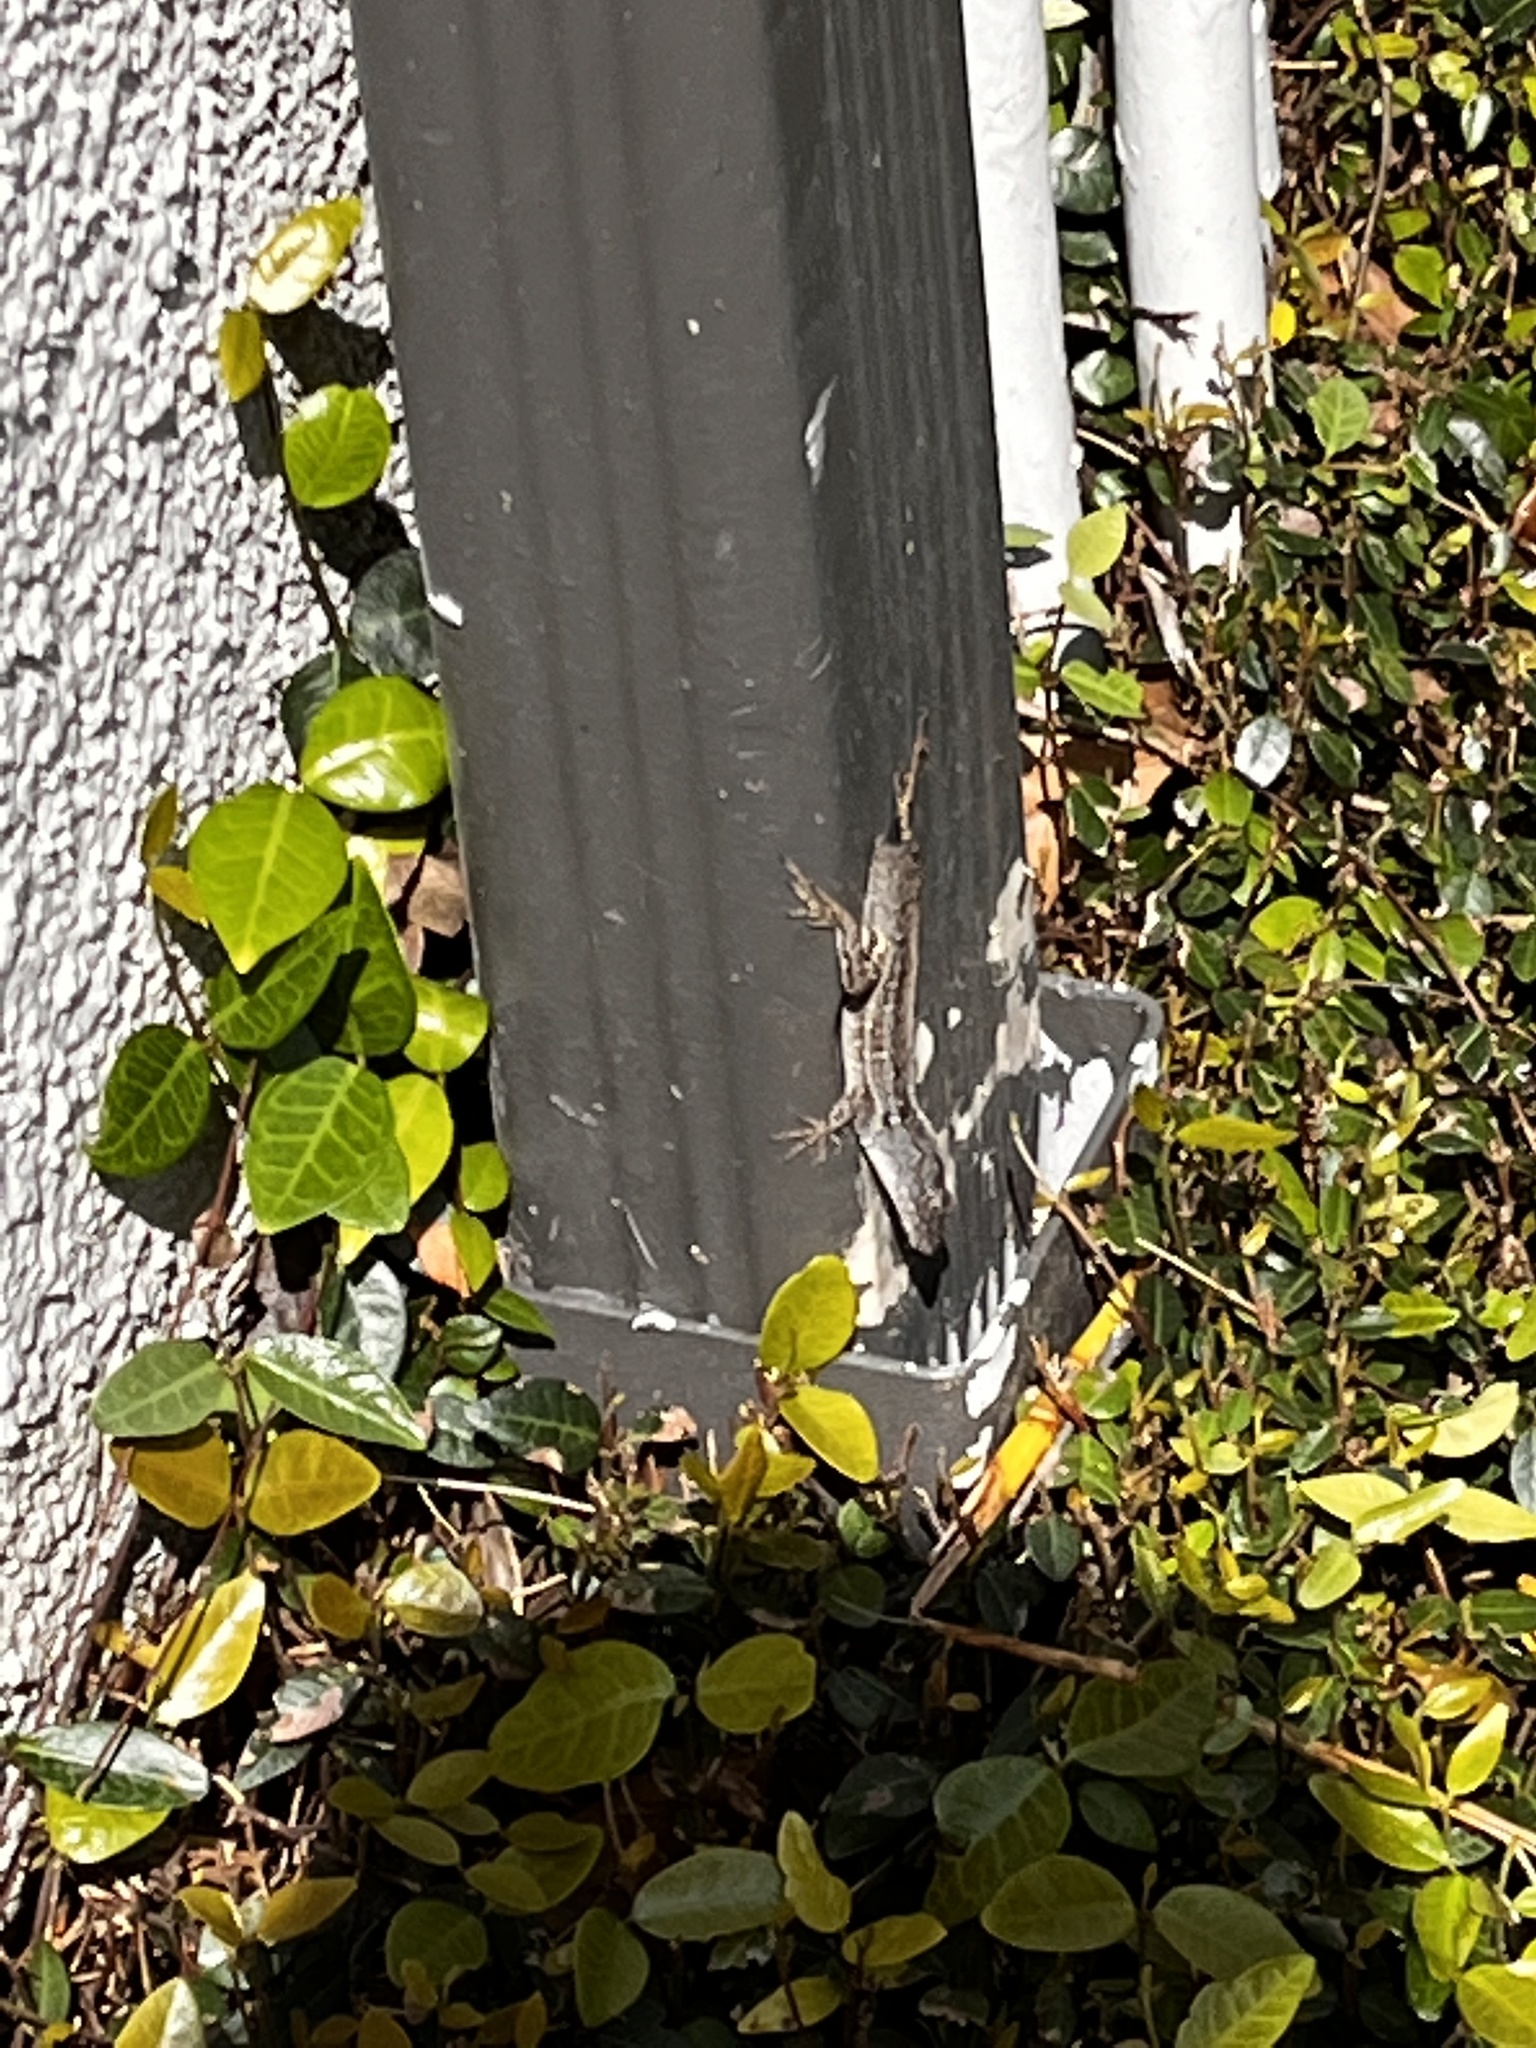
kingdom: Animalia
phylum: Chordata
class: Squamata
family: Dactyloidae
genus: Anolis
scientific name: Anolis sagrei
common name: Brown anole
